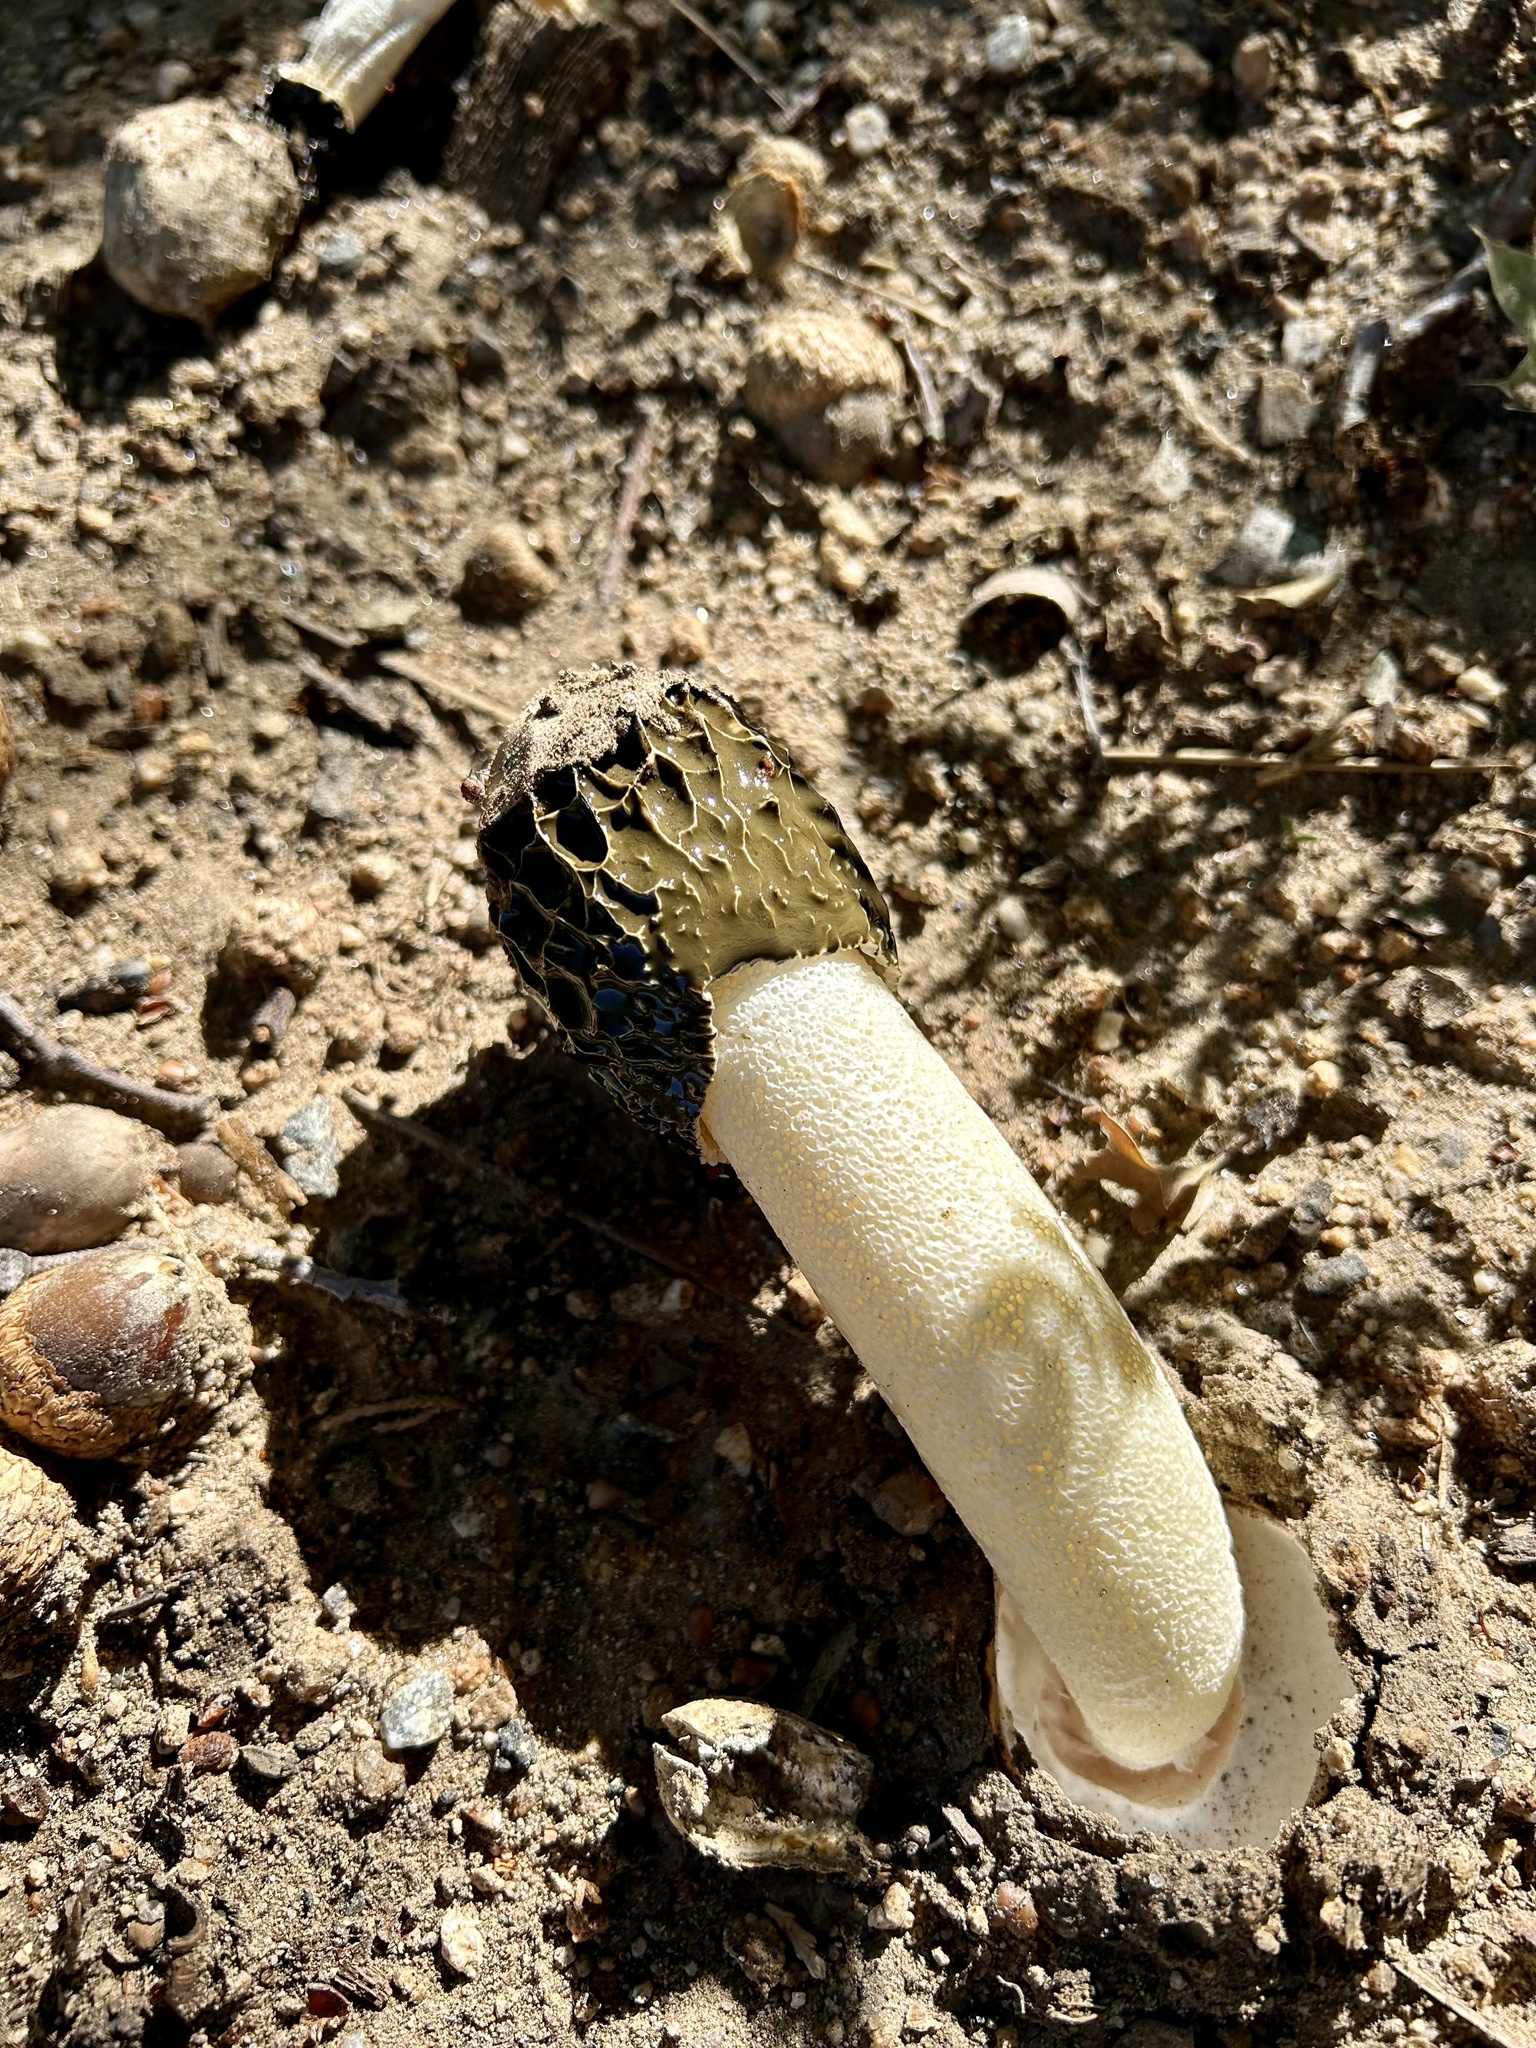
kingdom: Fungi
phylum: Basidiomycota
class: Agaricomycetes
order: Phallales
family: Phallaceae
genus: Phallus
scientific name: Phallus hadriani
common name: Sand stinkhorn
